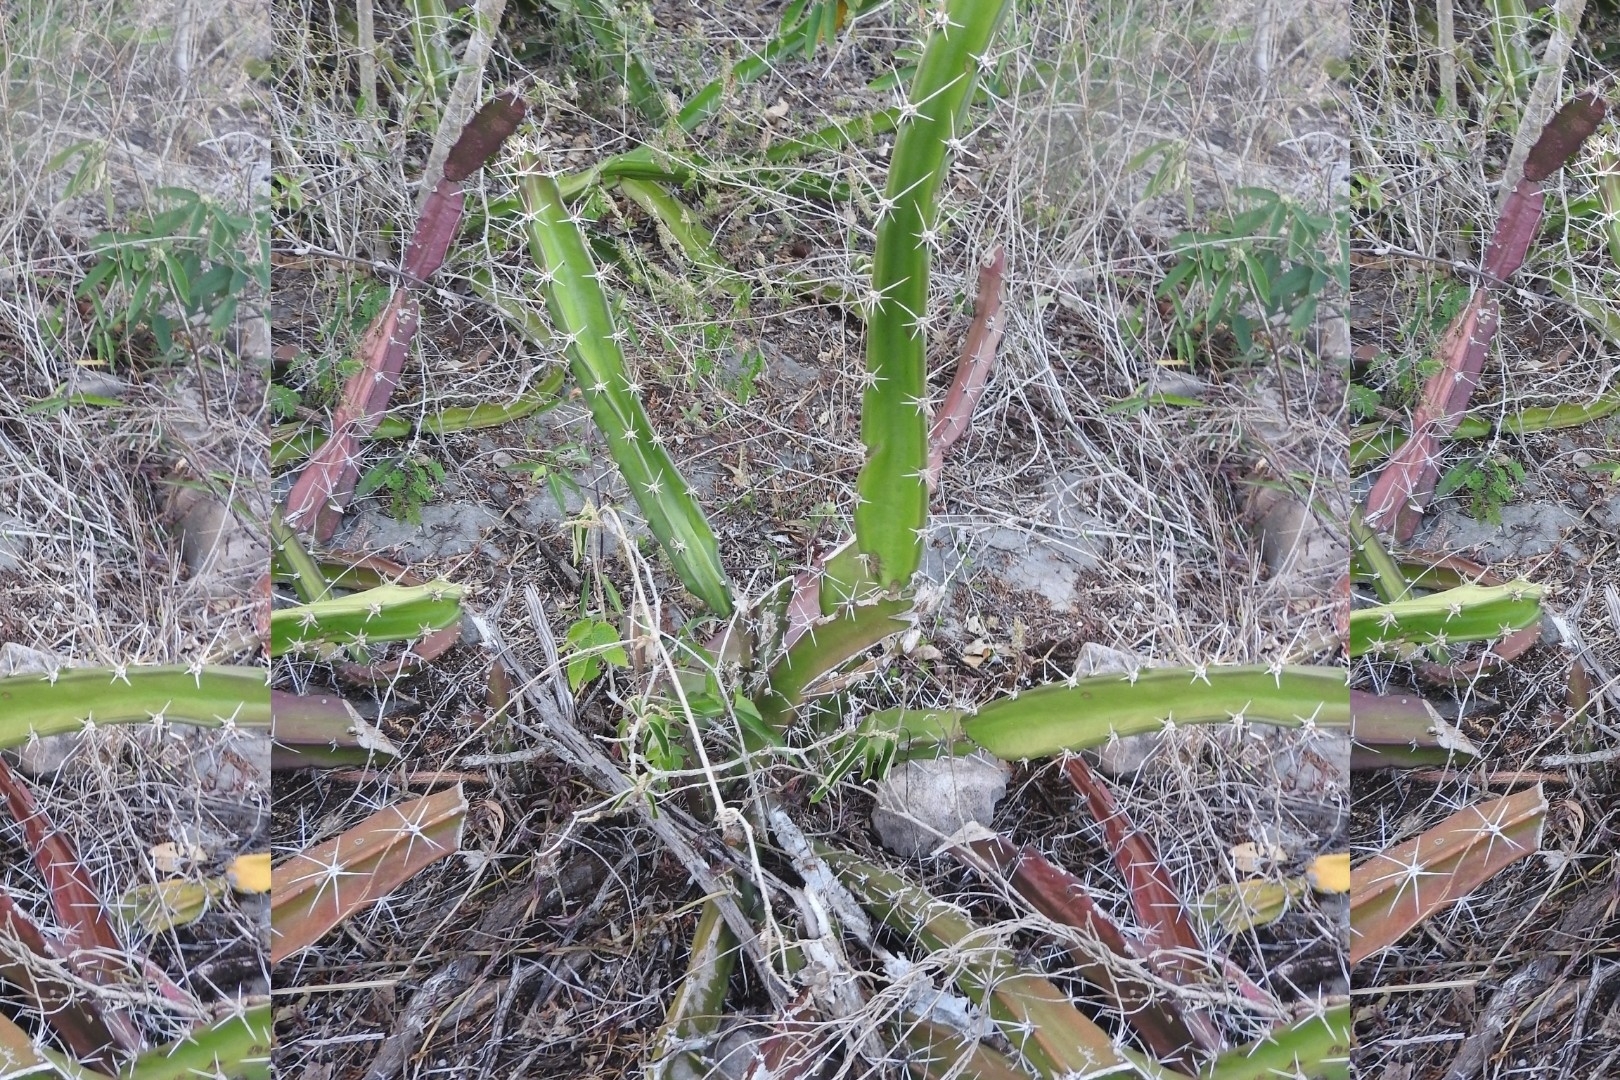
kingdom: Plantae
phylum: Tracheophyta
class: Magnoliopsida
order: Caryophyllales
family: Cactaceae
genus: Acanthocereus
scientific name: Acanthocereus tetragonus
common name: Triangle cactus
